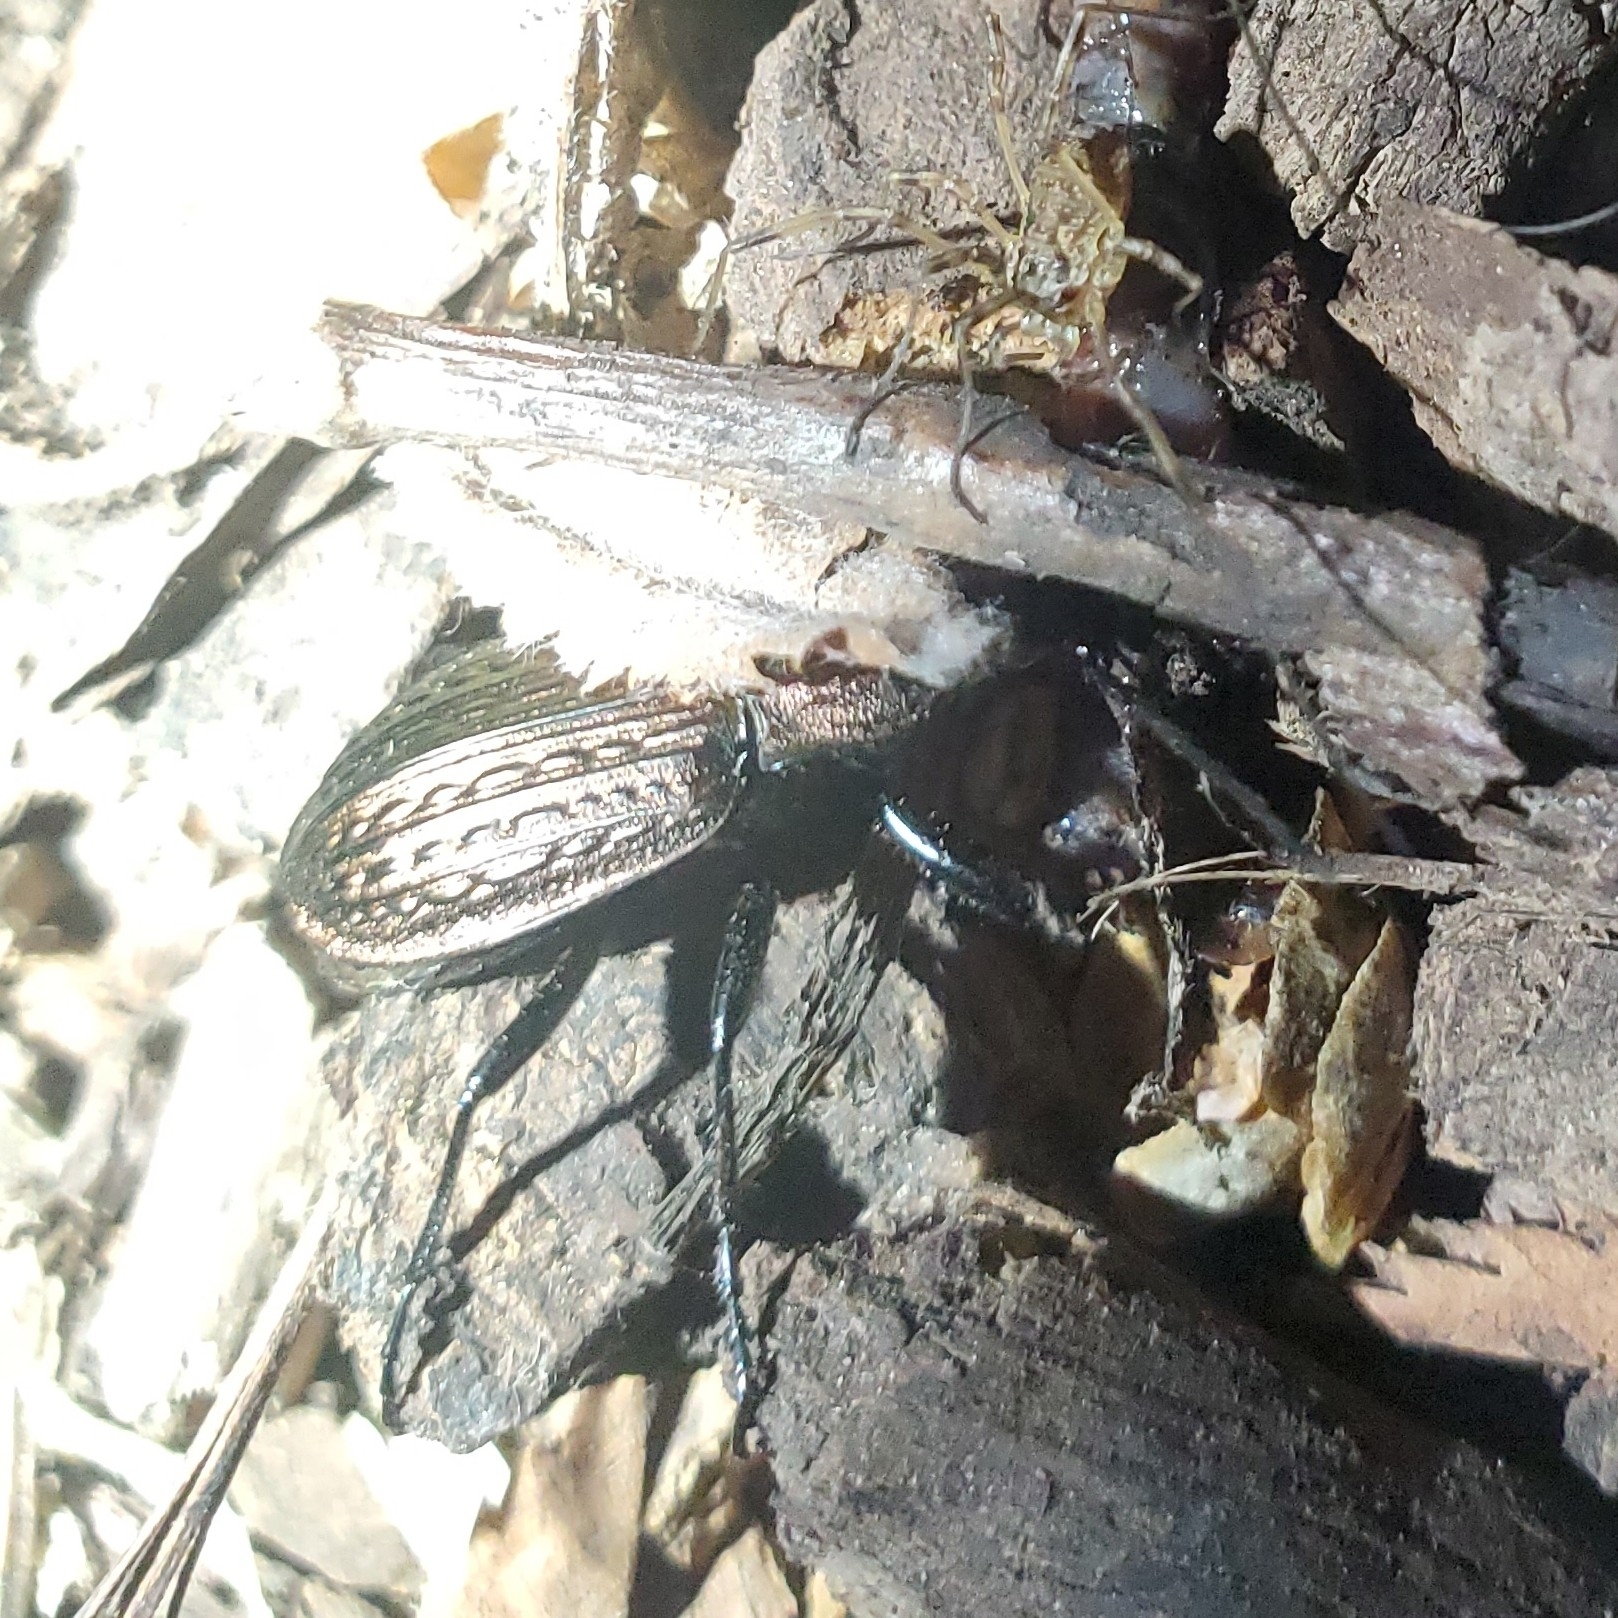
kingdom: Animalia
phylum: Arthropoda
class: Insecta
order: Coleoptera
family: Carabidae
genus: Carabus
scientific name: Carabus granulatus
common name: Granulate ground beetle
